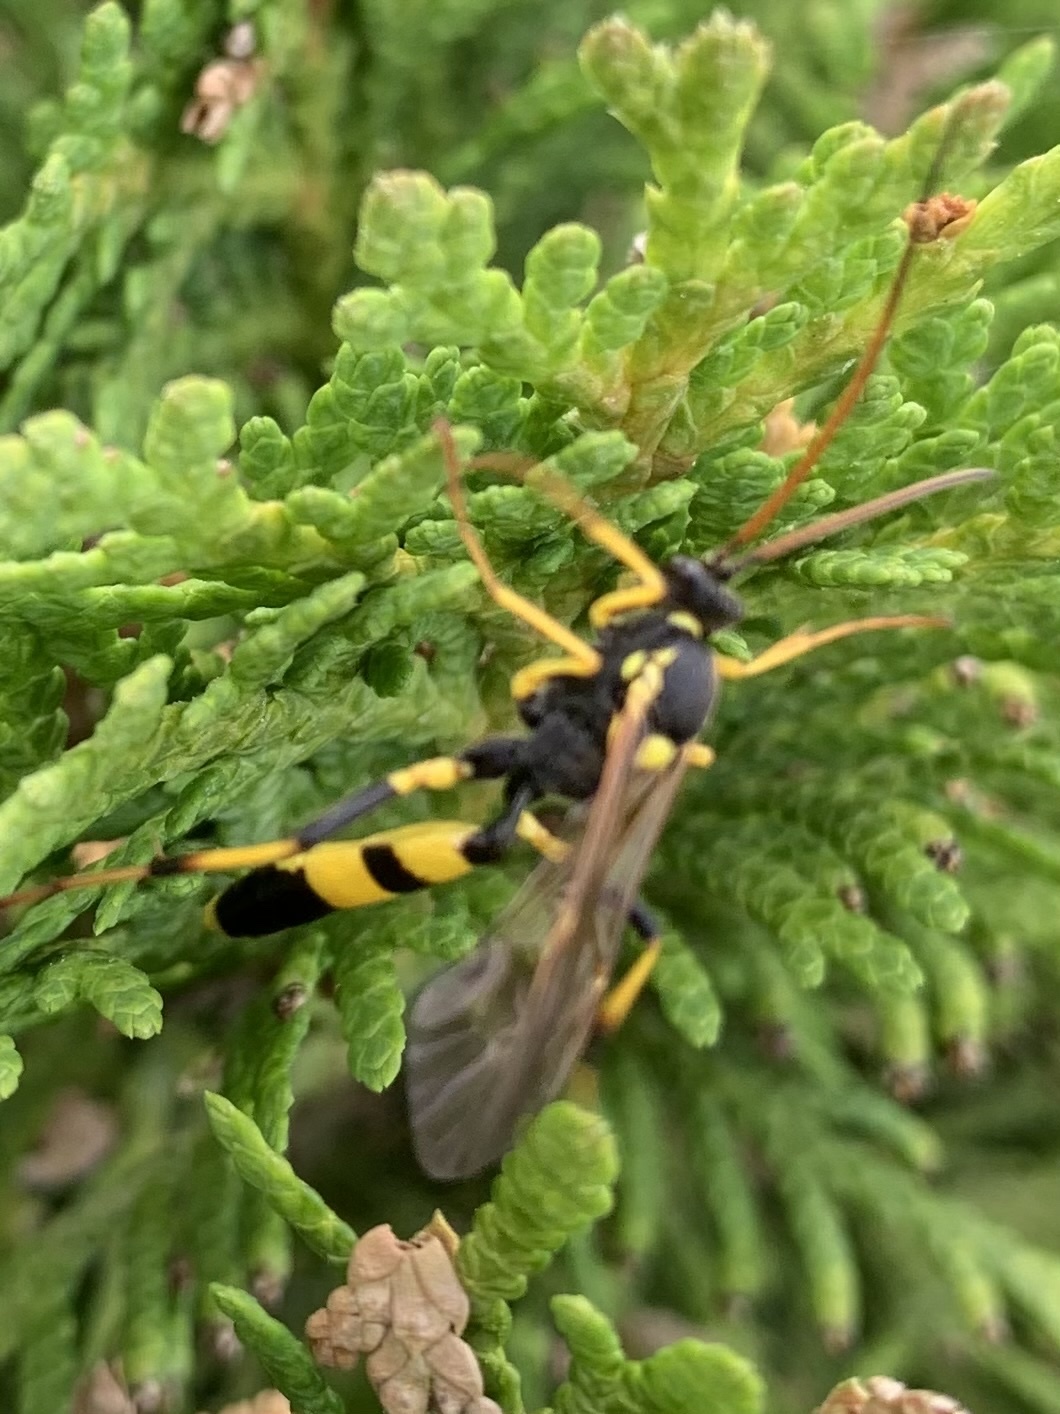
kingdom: Animalia
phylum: Arthropoda
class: Insecta
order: Hymenoptera
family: Ichneumonidae
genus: Amblyteles
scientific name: Amblyteles armatorius
